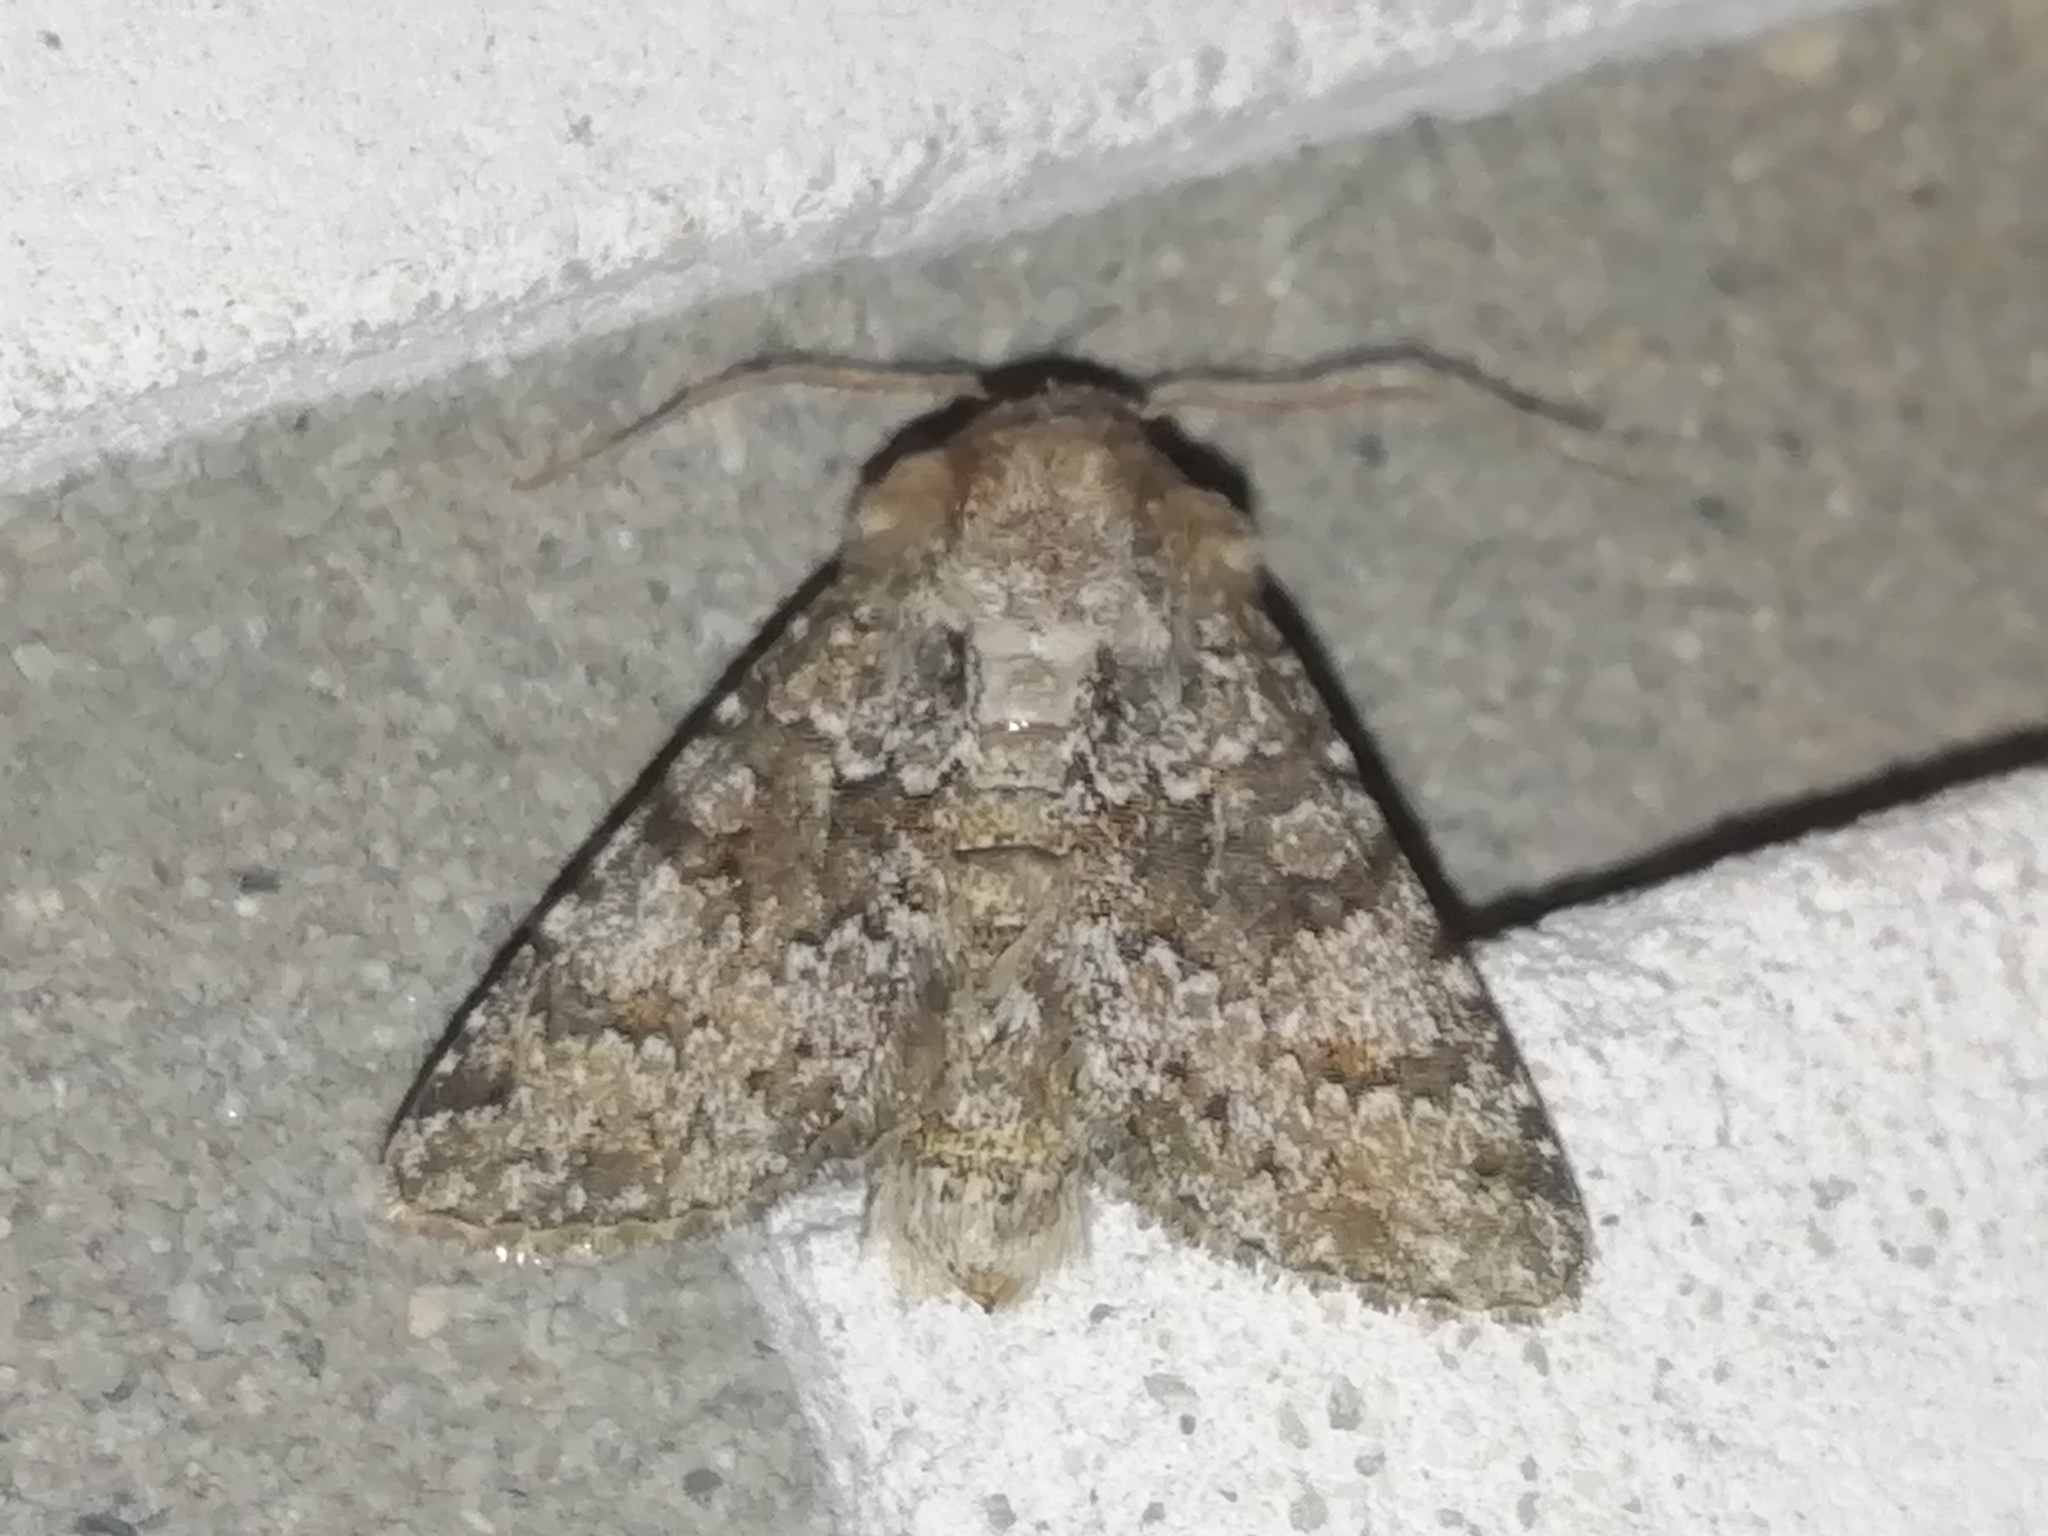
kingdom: Animalia
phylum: Arthropoda
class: Insecta
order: Lepidoptera
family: Noctuidae
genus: Hecatera
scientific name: Hecatera dysodea
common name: Small ranunculus
